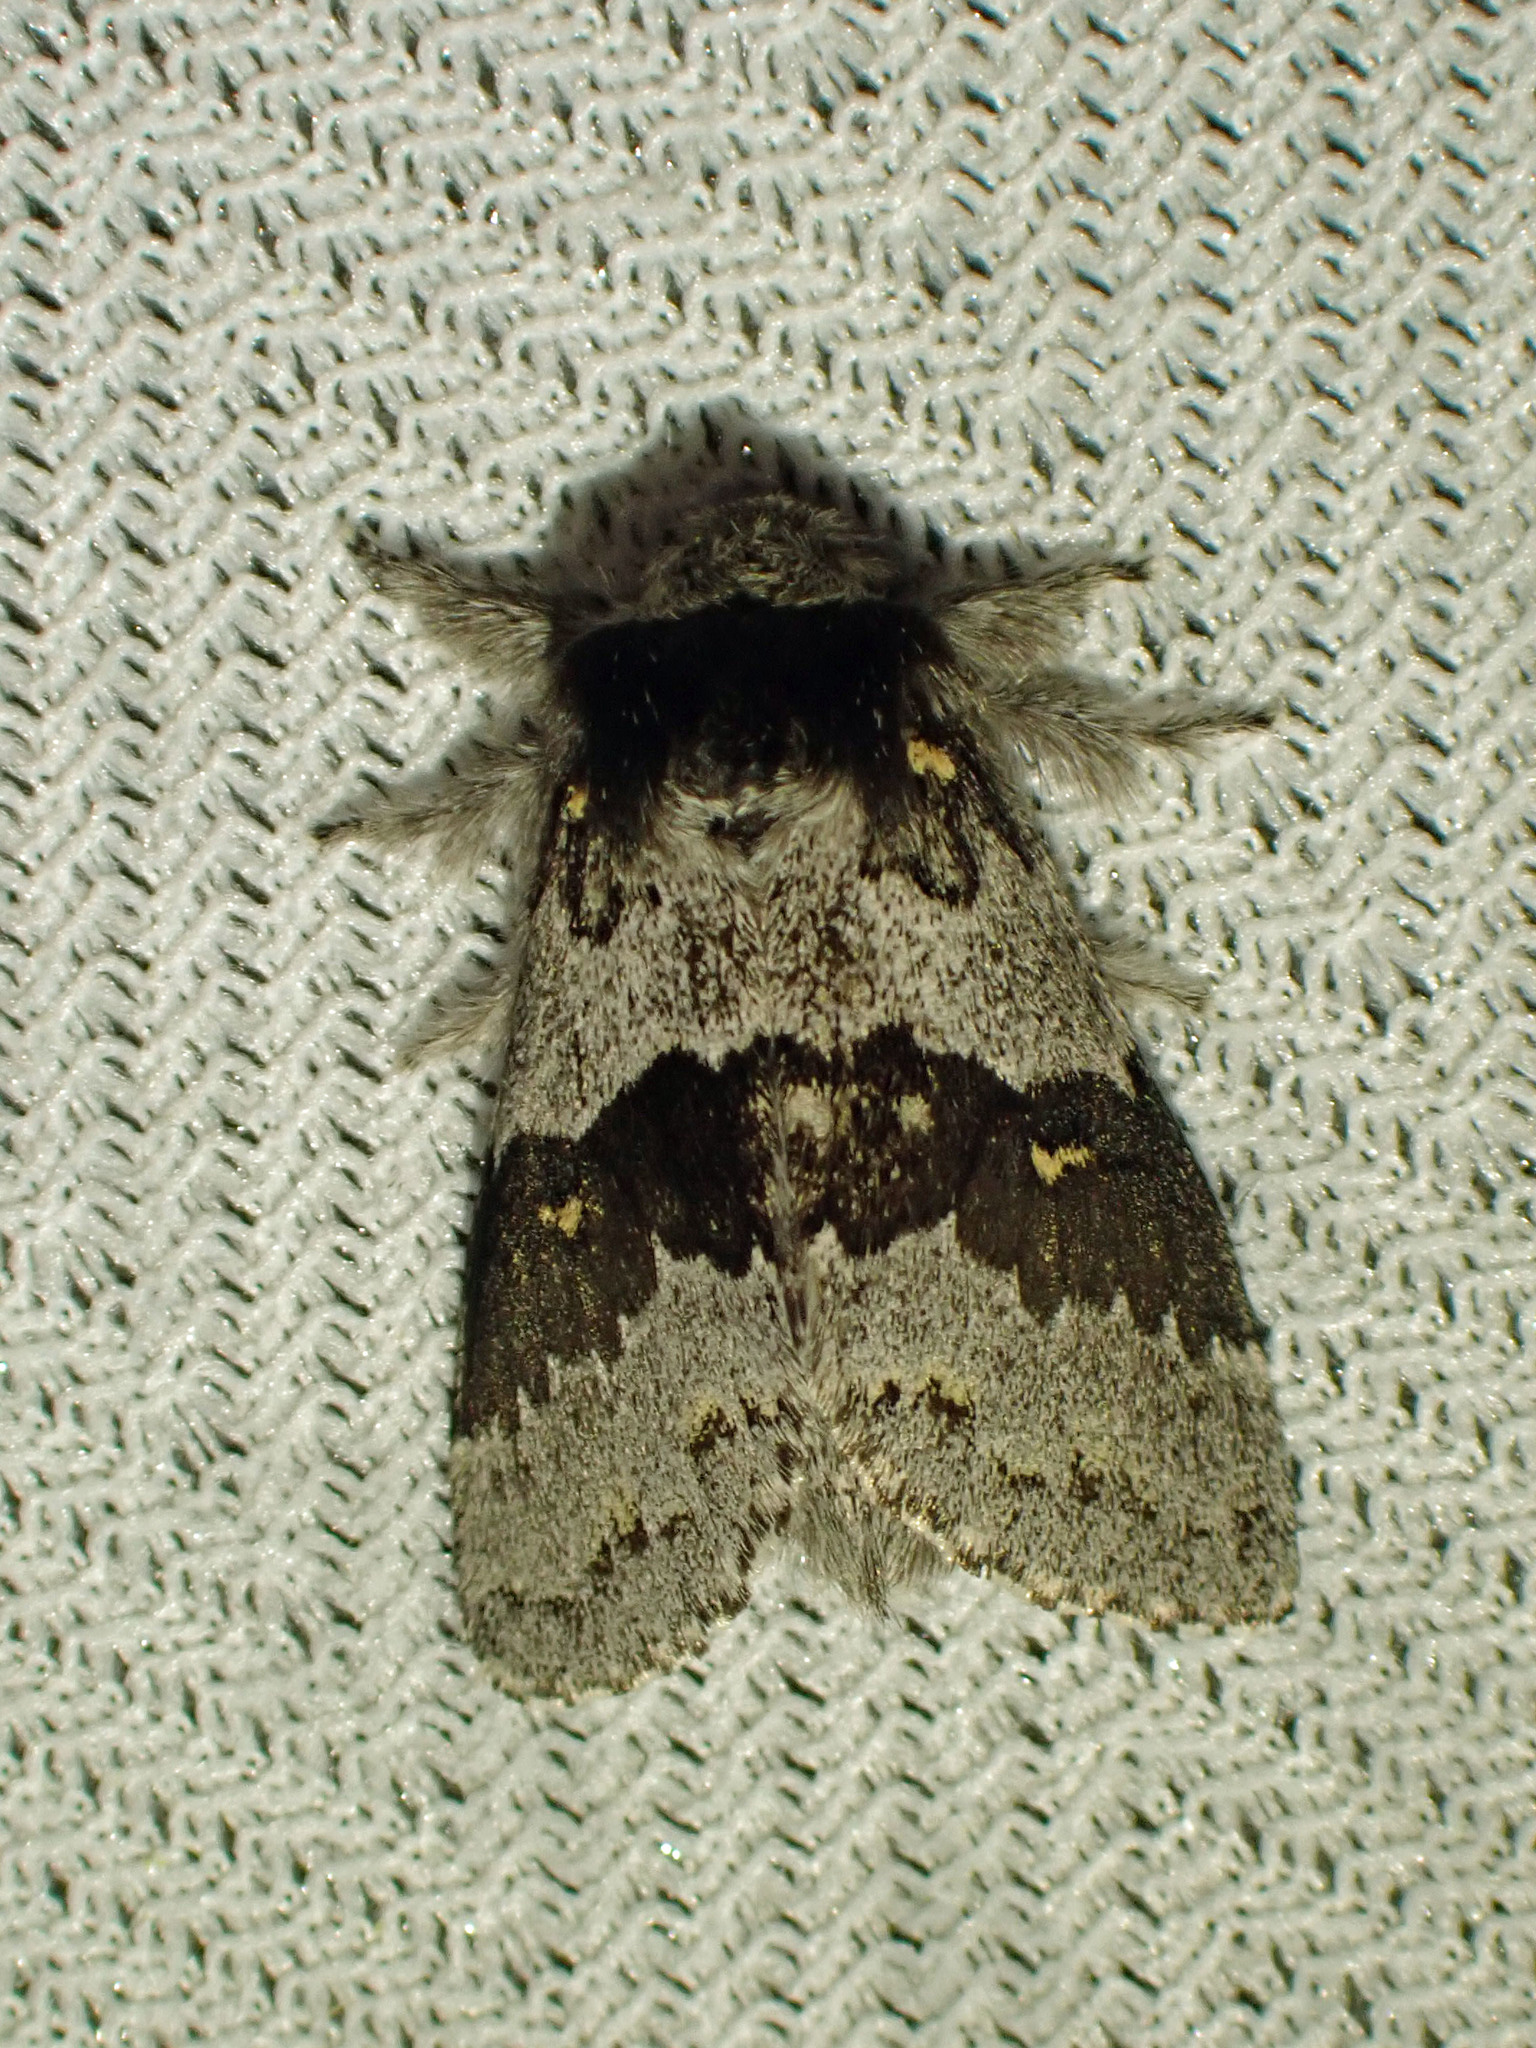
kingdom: Animalia
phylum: Arthropoda
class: Insecta
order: Lepidoptera
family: Notodontidae
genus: Gluphisia
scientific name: Gluphisia avimacula
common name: Four-spotted gluphisia moth
